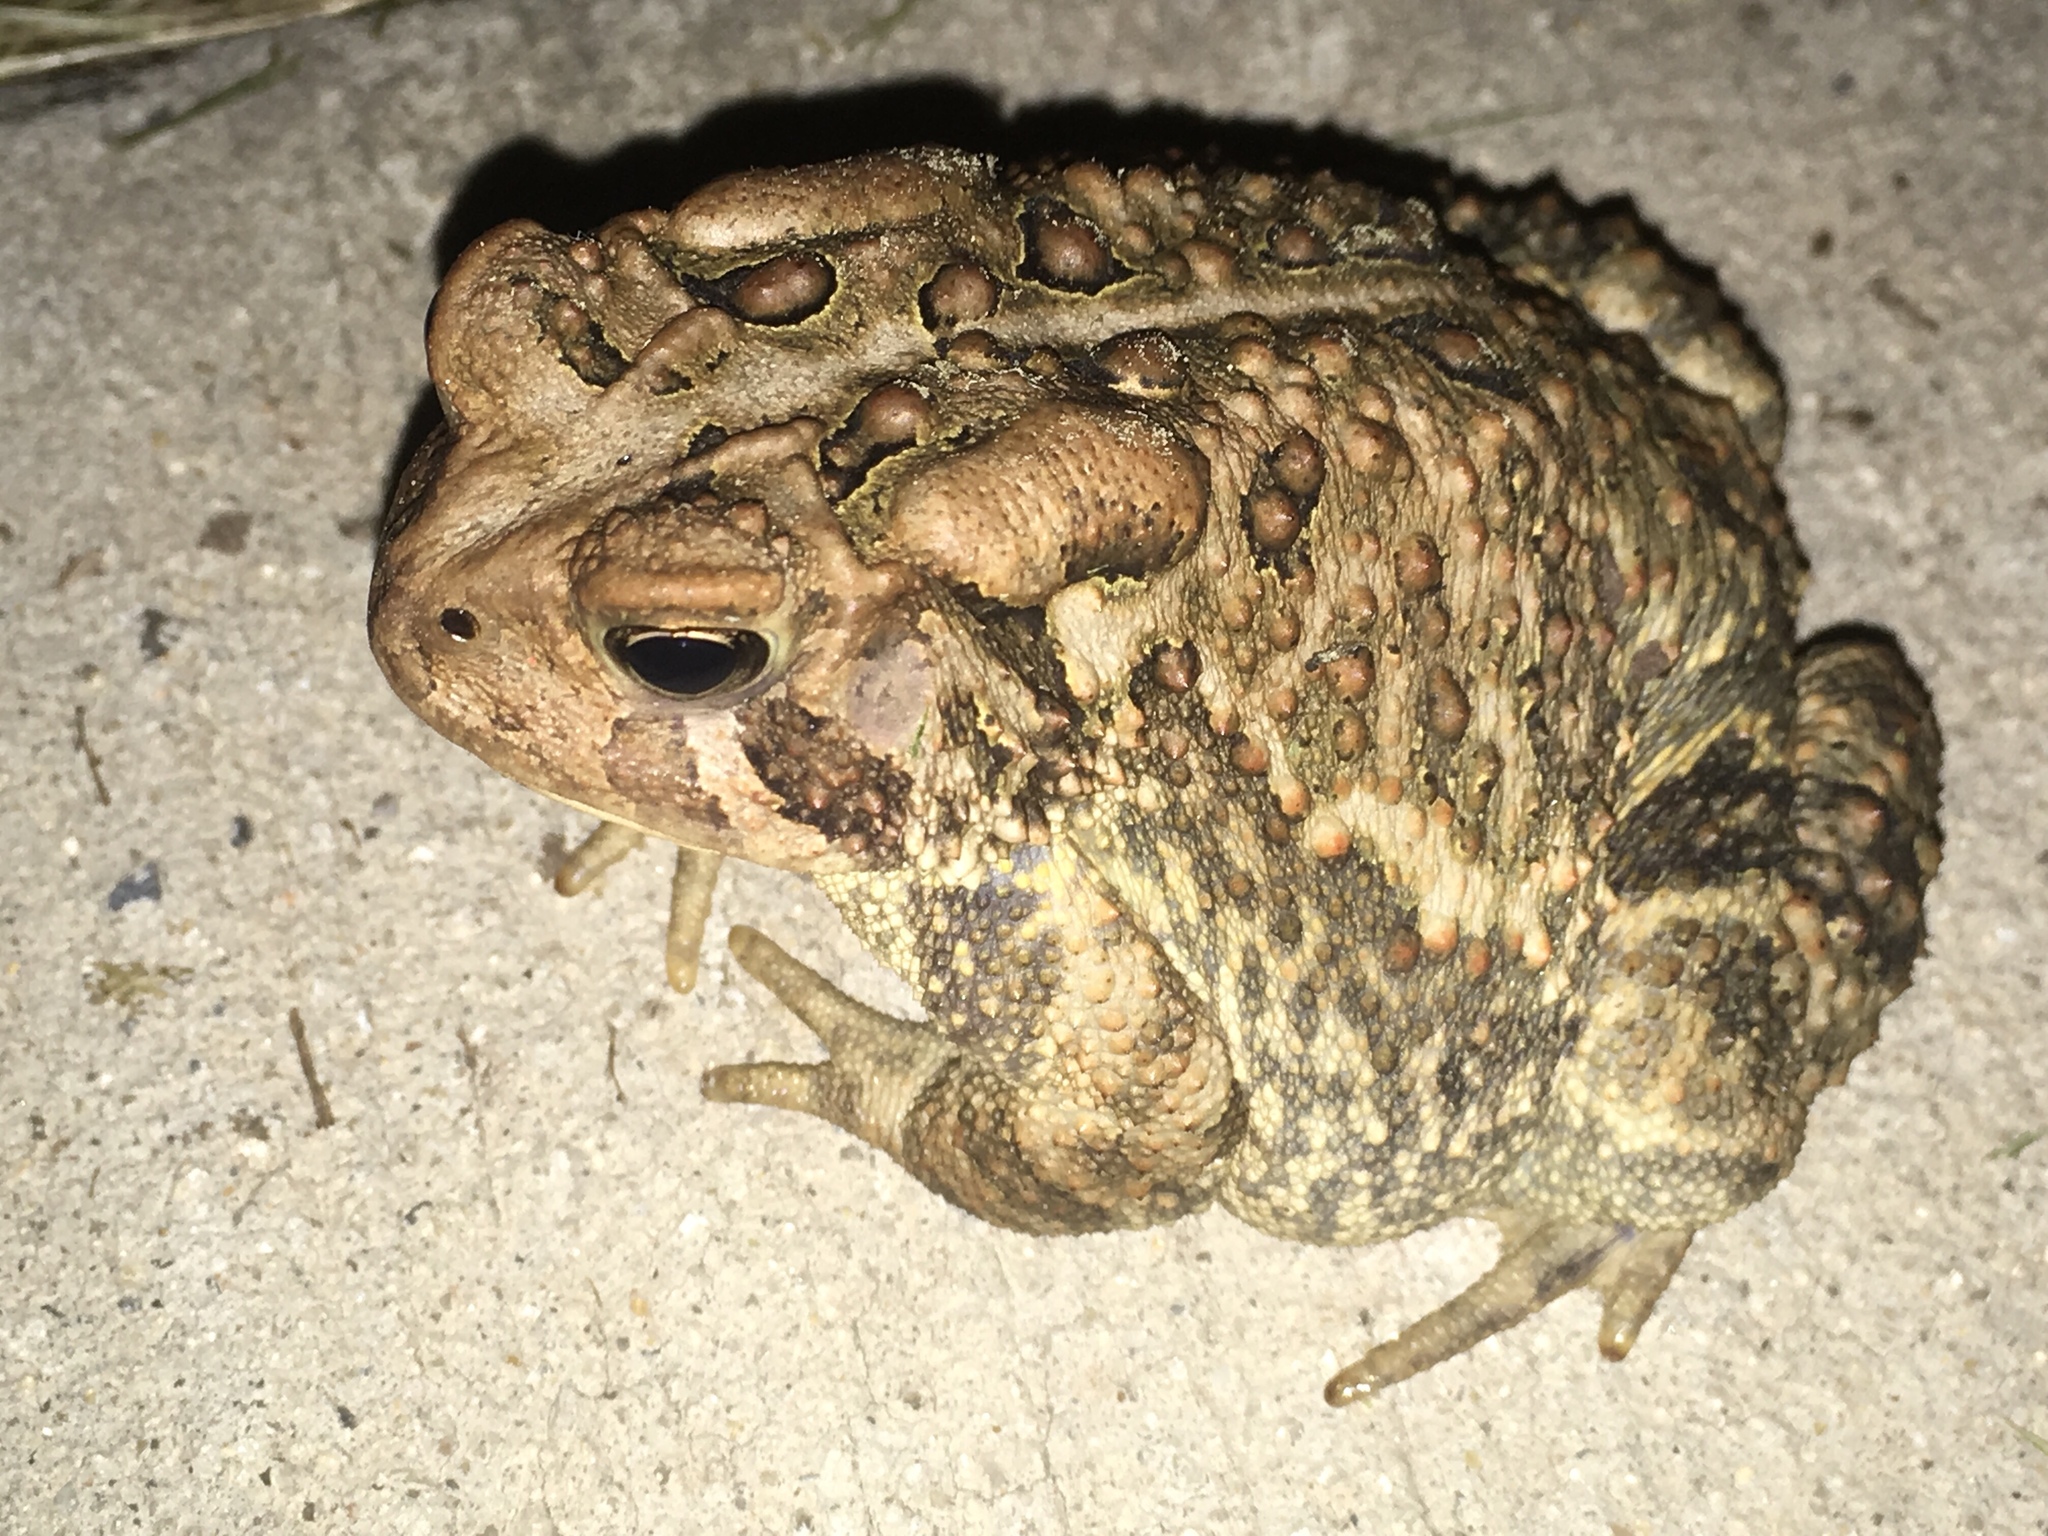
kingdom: Animalia
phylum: Chordata
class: Amphibia
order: Anura
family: Bufonidae
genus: Anaxyrus
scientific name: Anaxyrus americanus
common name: American toad
